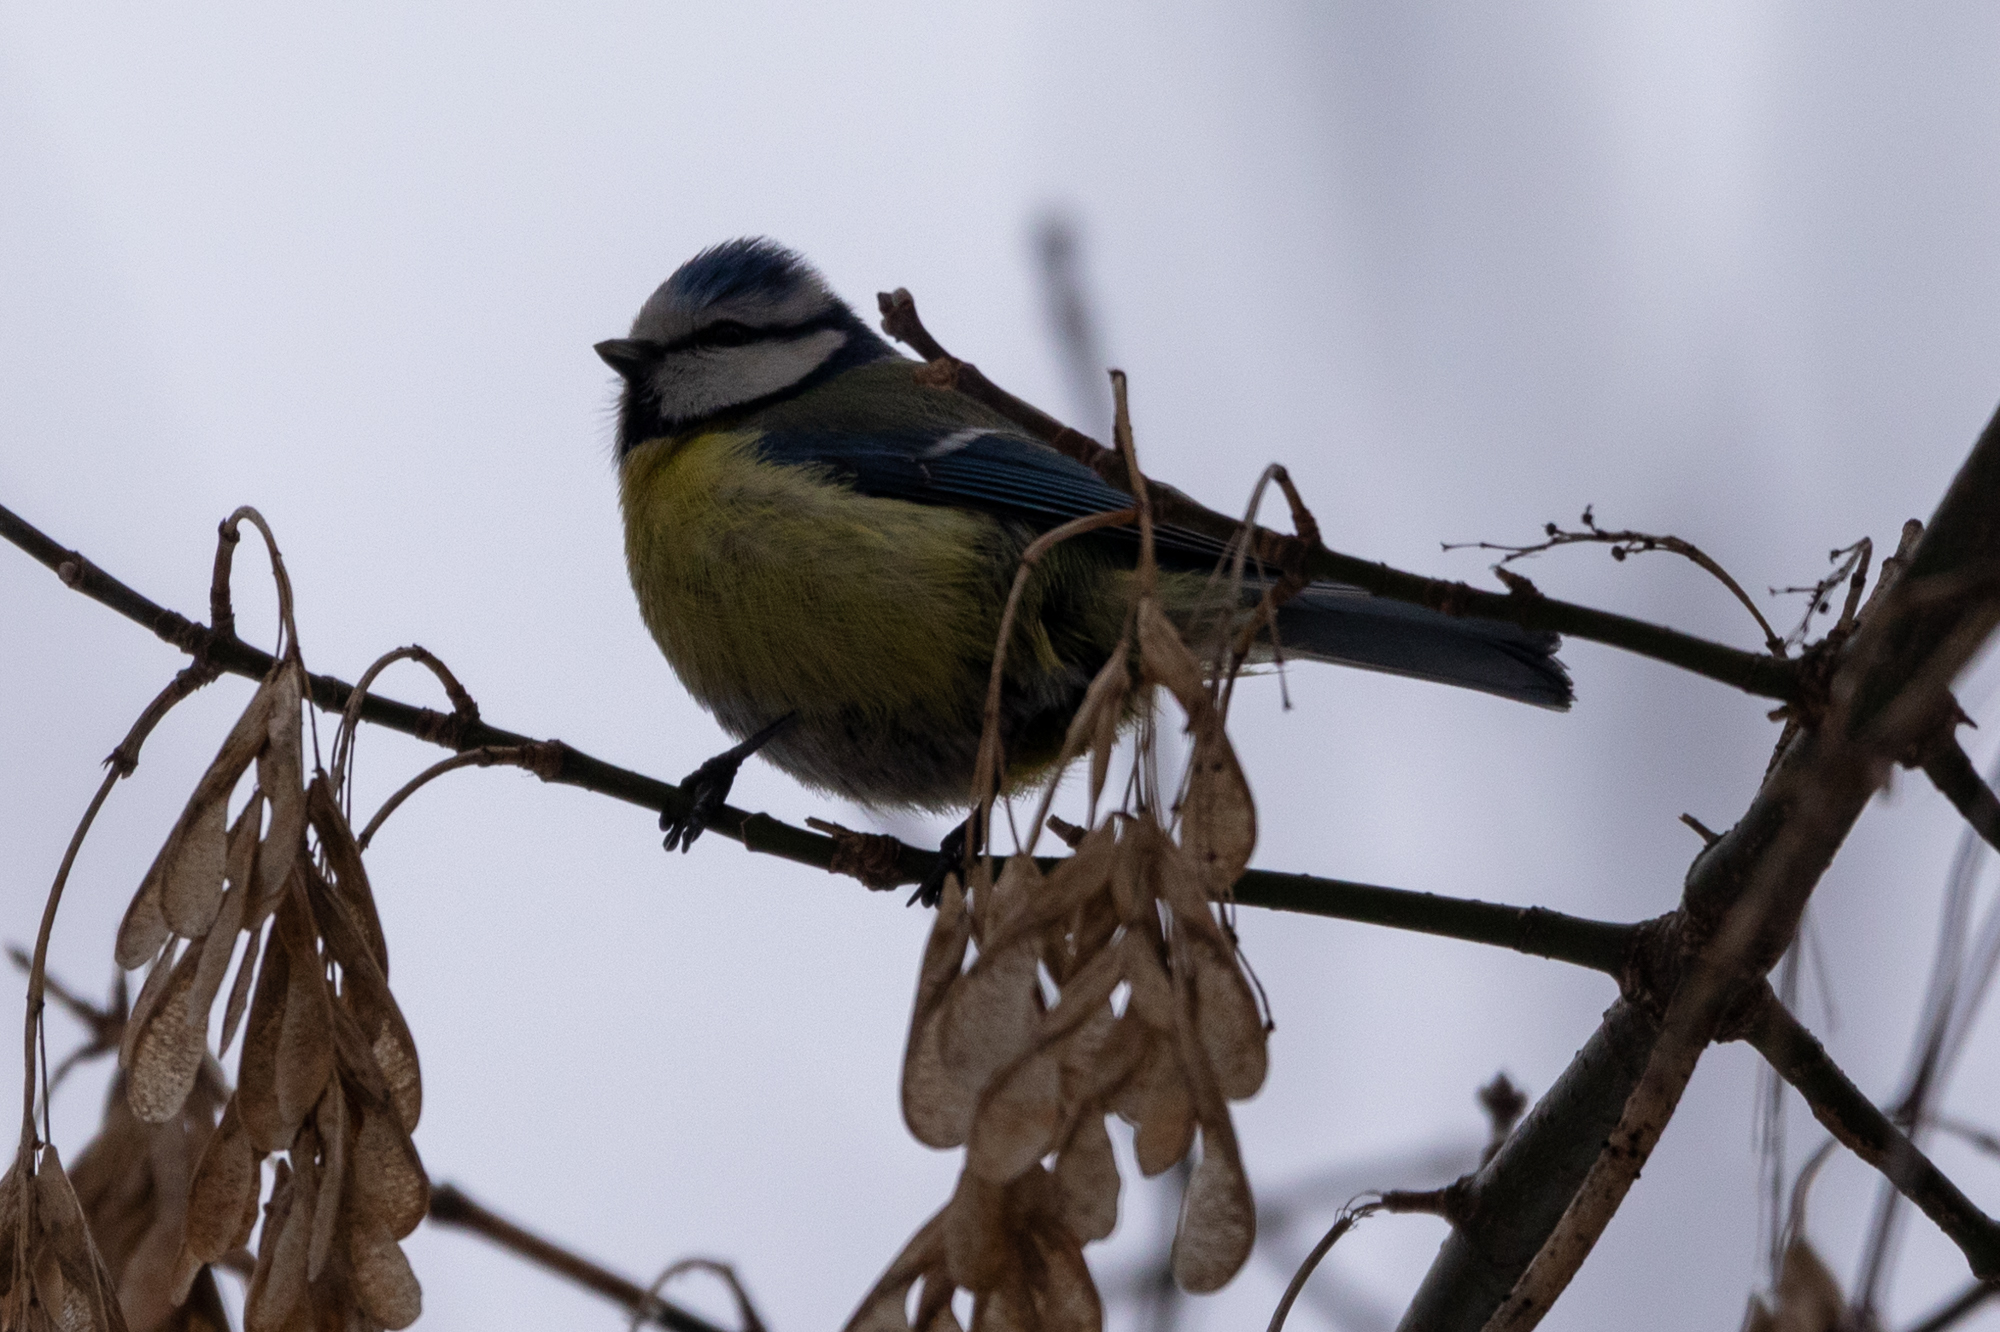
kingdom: Animalia
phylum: Chordata
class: Aves
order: Passeriformes
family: Paridae
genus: Cyanistes
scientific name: Cyanistes caeruleus
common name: Eurasian blue tit
